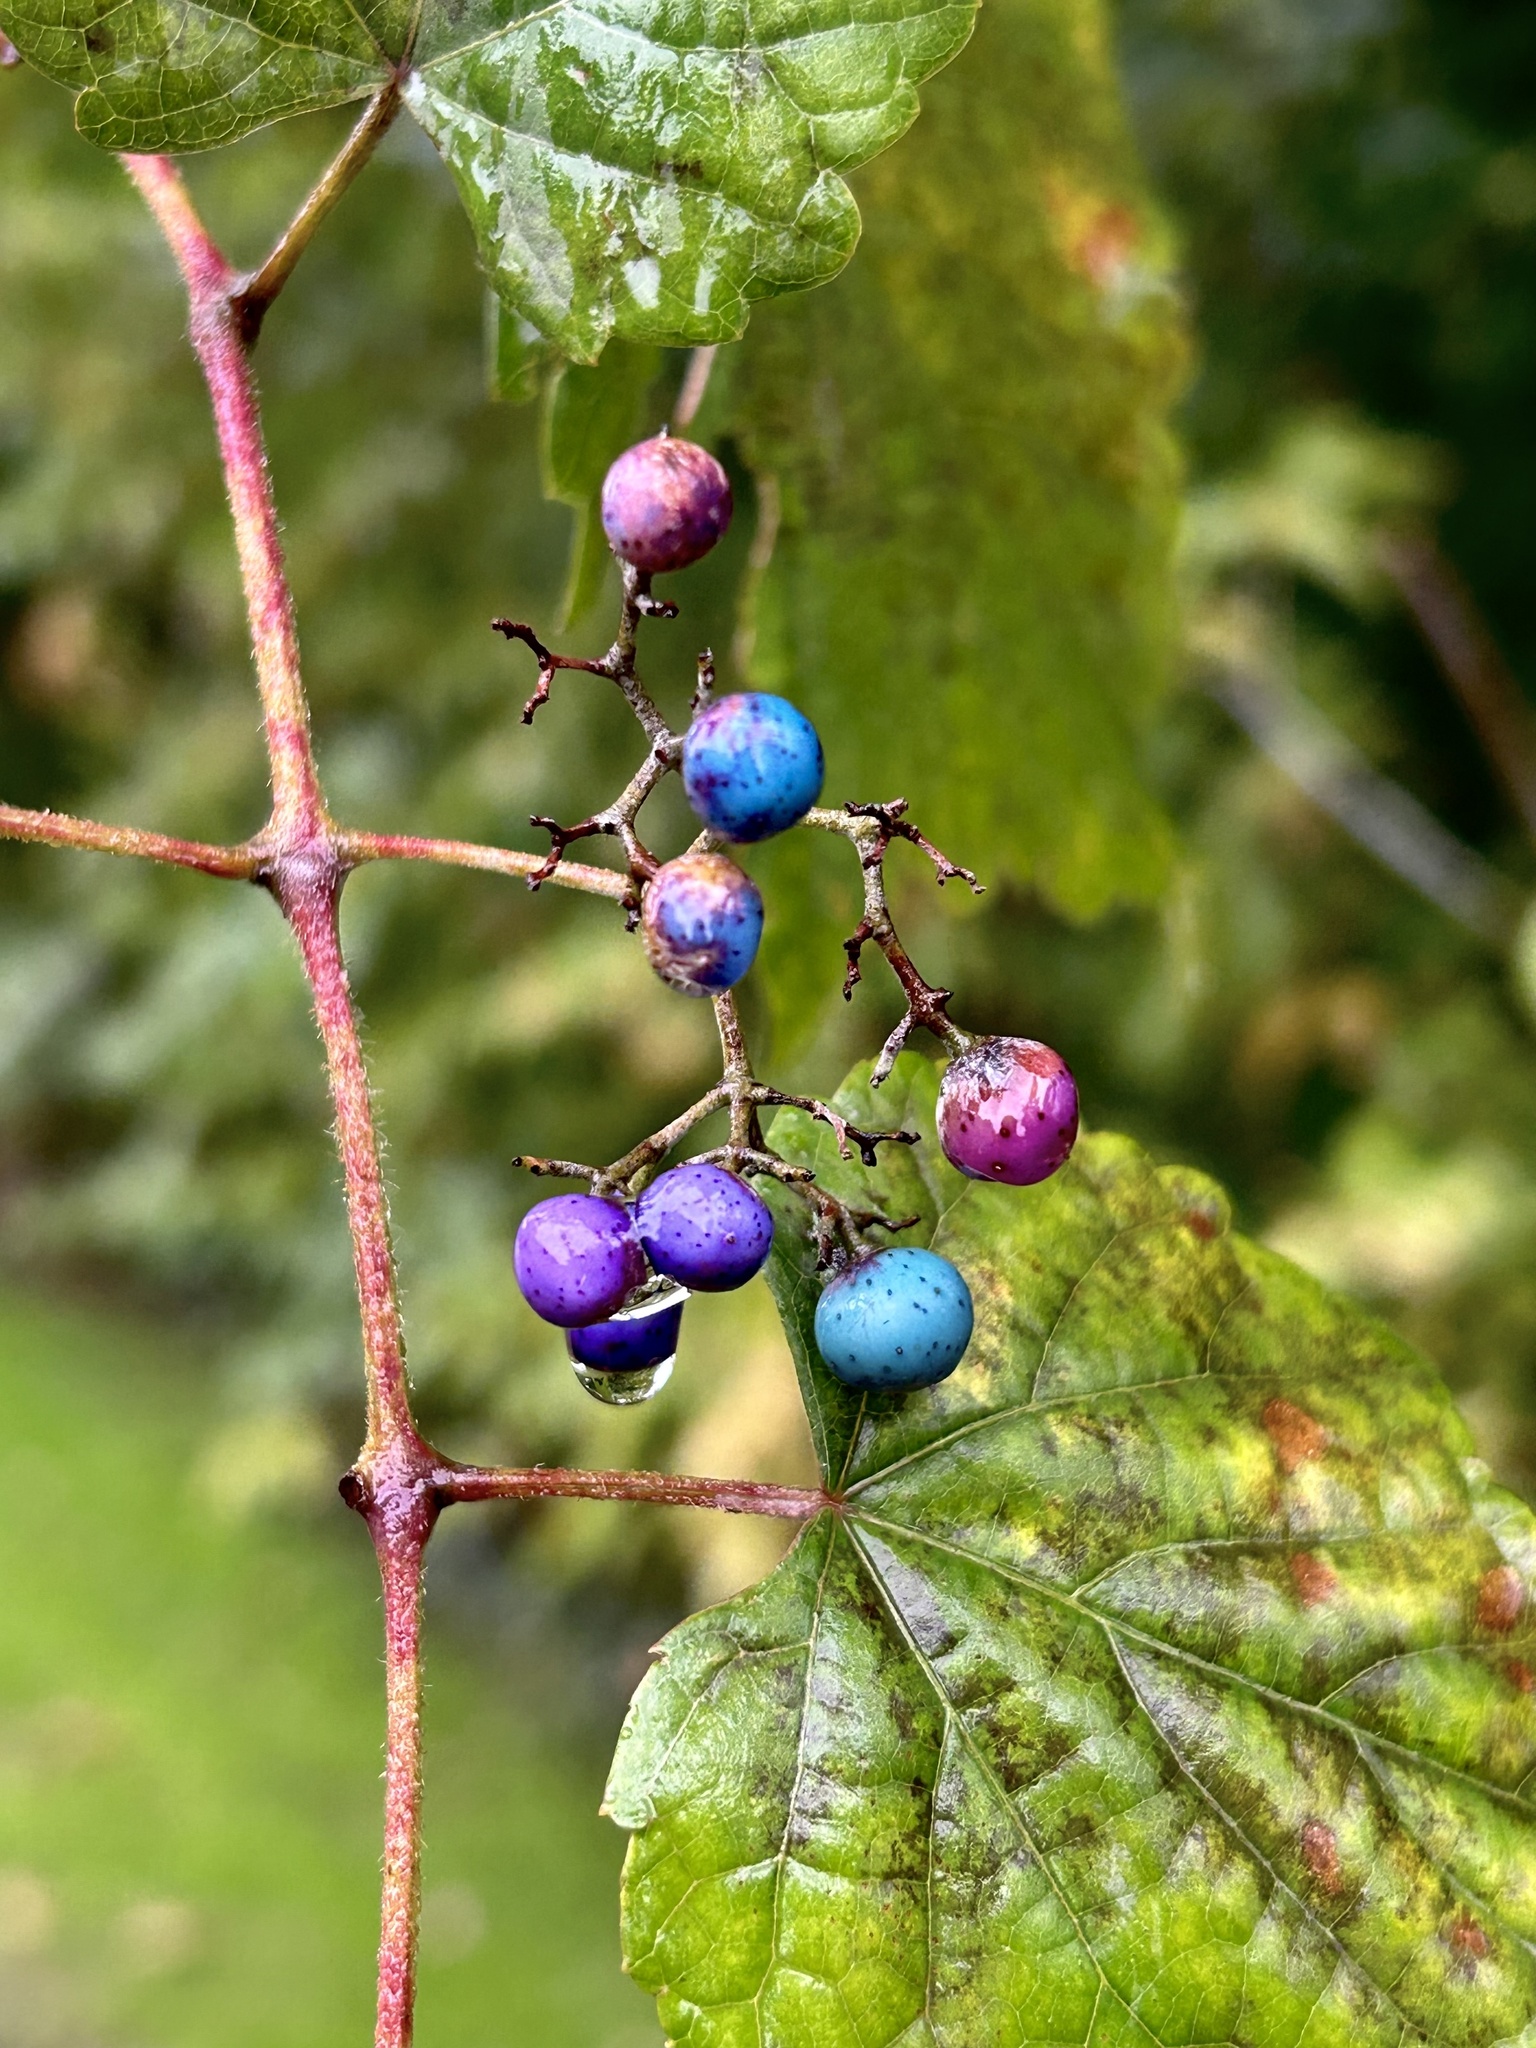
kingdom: Plantae
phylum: Tracheophyta
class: Magnoliopsida
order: Vitales
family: Vitaceae
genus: Ampelopsis
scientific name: Ampelopsis glandulosa
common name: Amur peppervine
